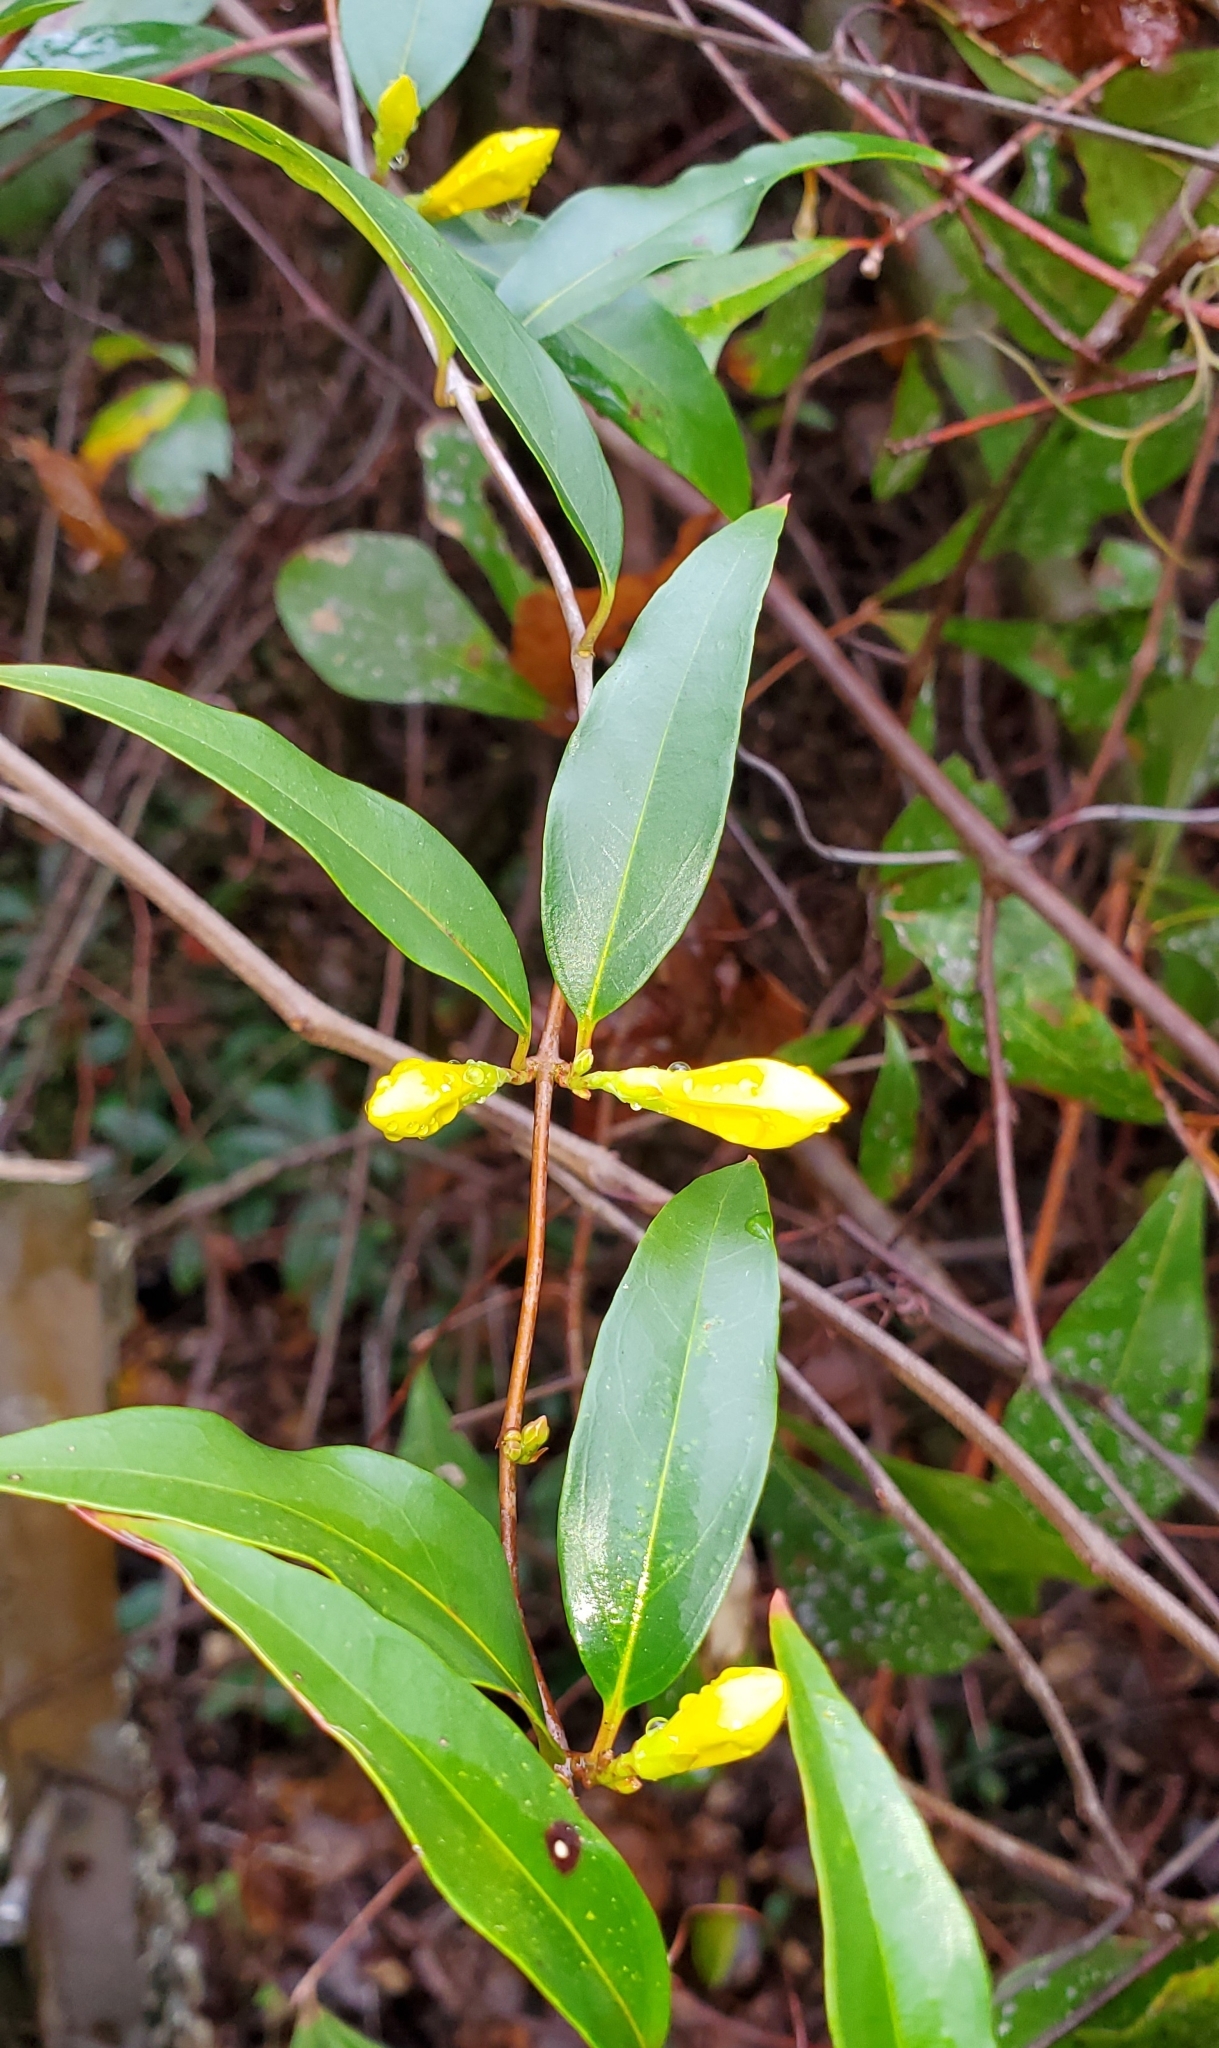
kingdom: Plantae
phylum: Tracheophyta
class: Magnoliopsida
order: Gentianales
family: Gelsemiaceae
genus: Gelsemium
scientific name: Gelsemium sempervirens
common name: Carolina-jasmine
